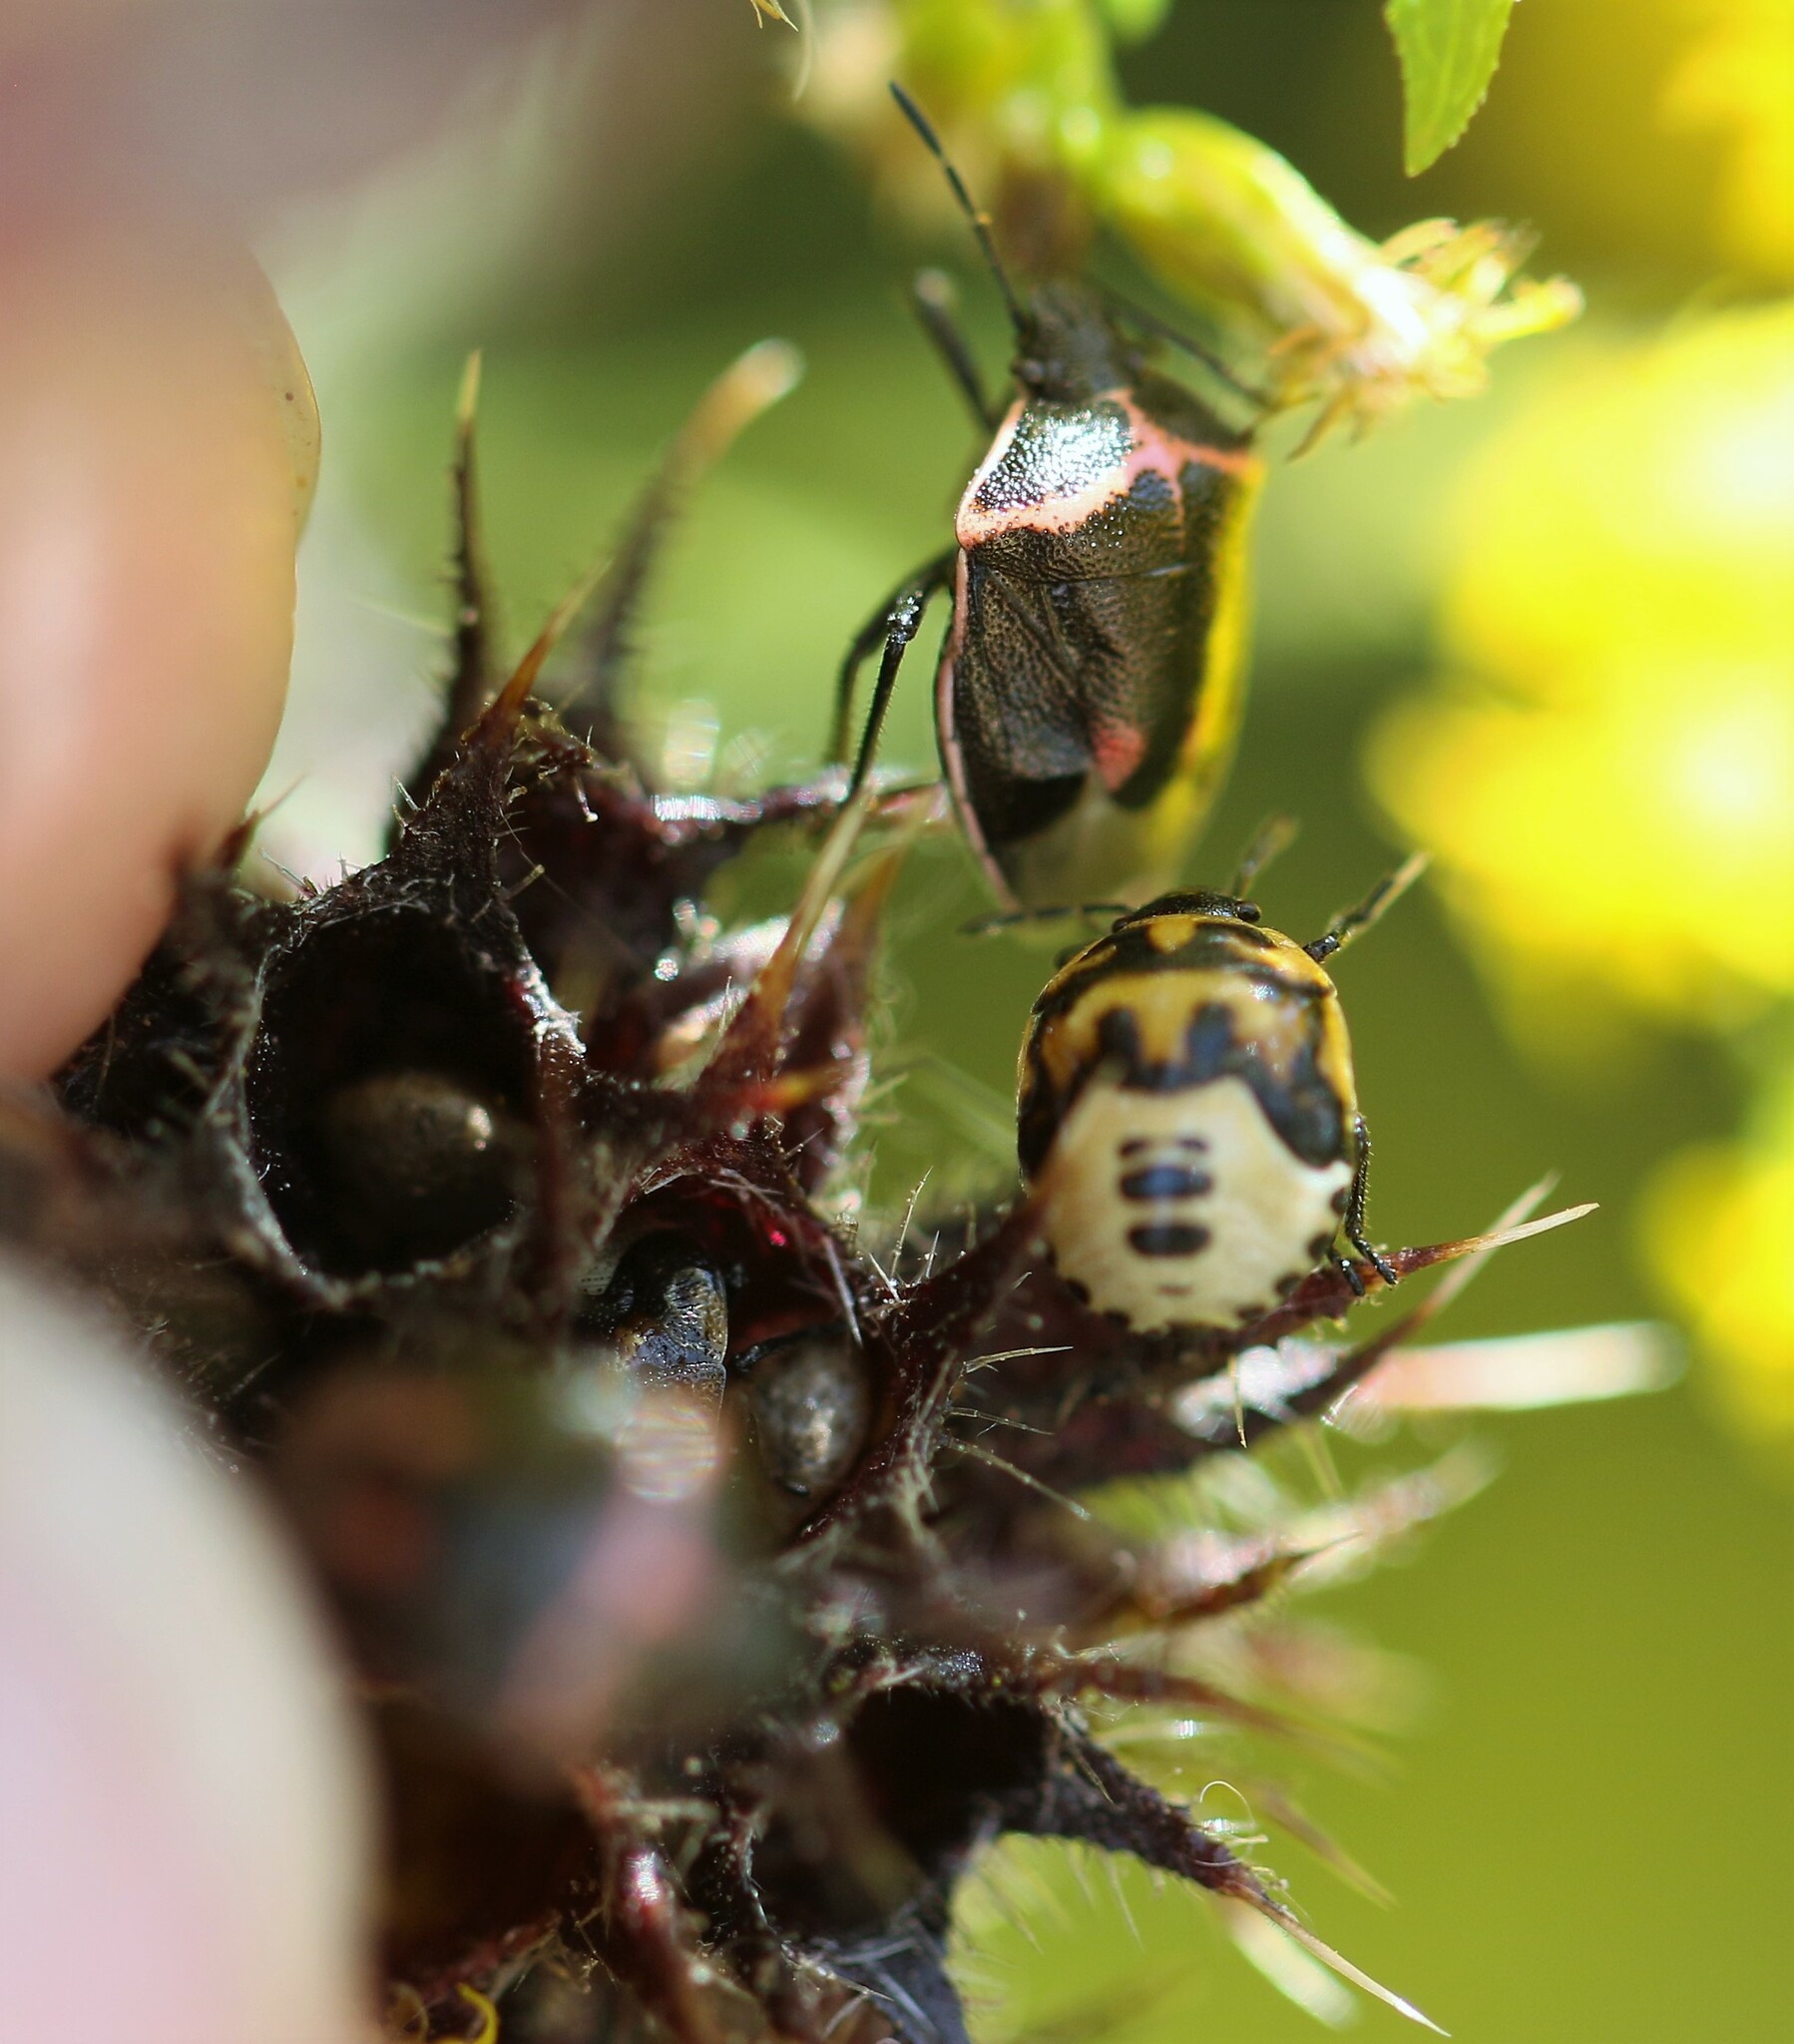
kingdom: Animalia
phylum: Arthropoda
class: Insecta
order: Hemiptera
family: Pentatomidae
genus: Cosmopepla
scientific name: Cosmopepla lintneriana
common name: Twice-stabbed stink bug
